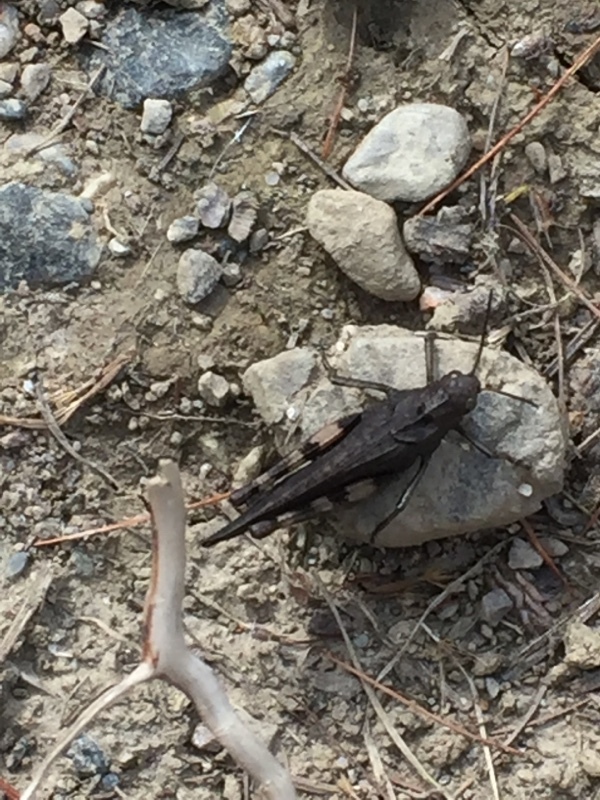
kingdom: Animalia
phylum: Arthropoda
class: Insecta
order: Orthoptera
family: Acrididae
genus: Psophus
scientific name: Psophus stridulus
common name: Rattle grasshopper
